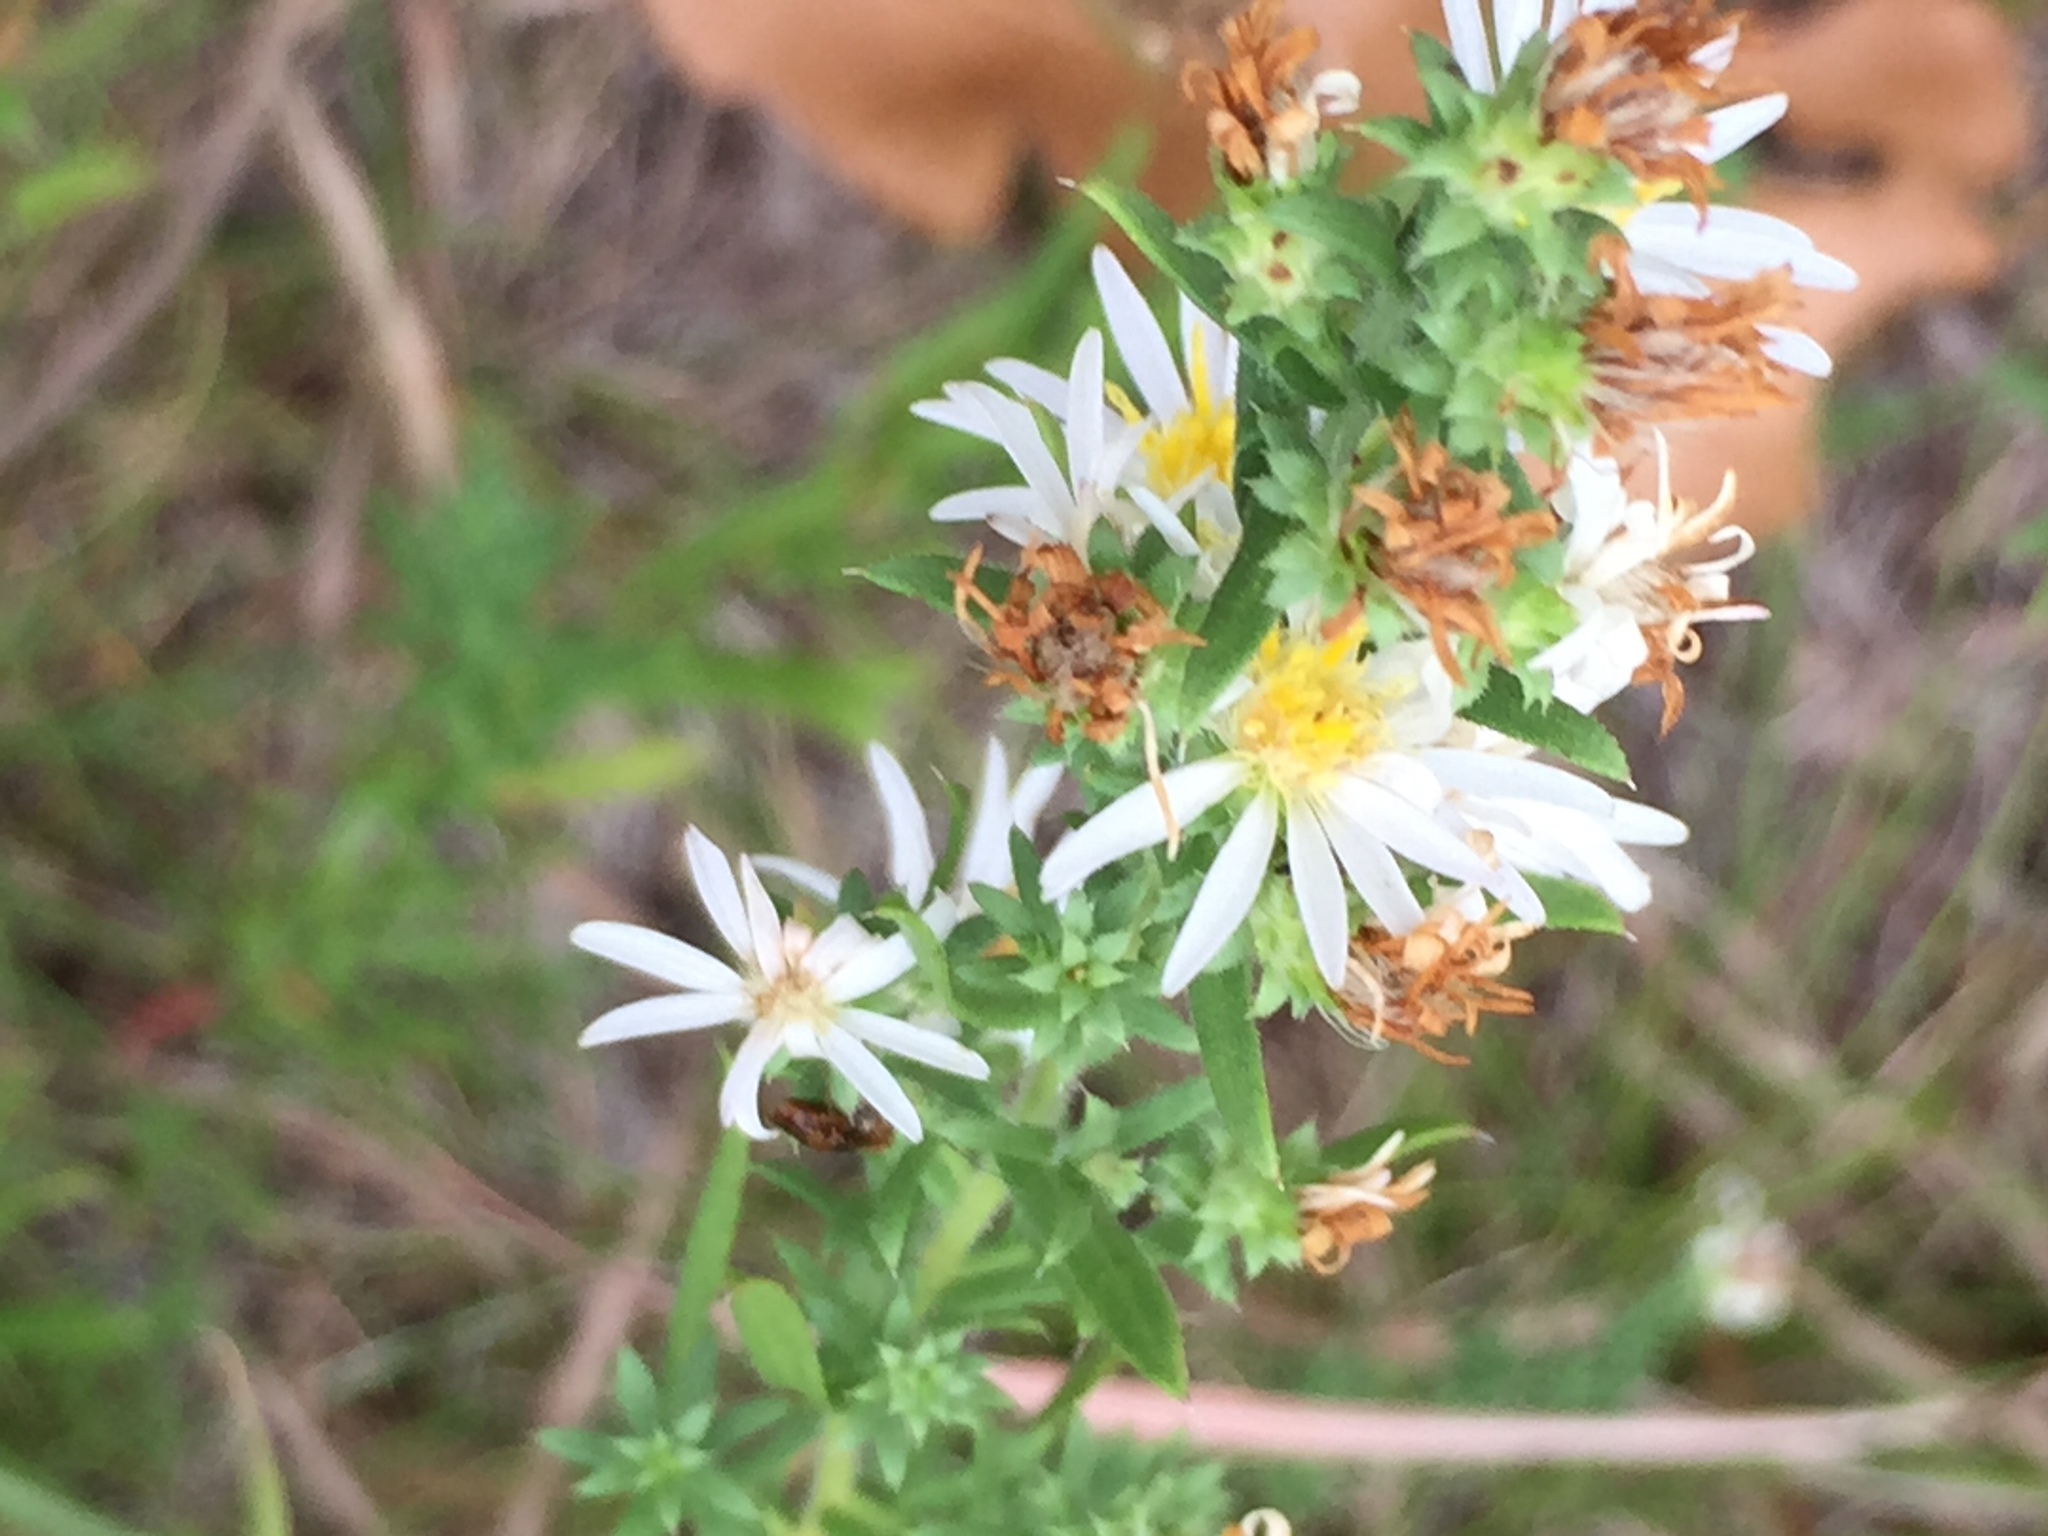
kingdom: Plantae
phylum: Tracheophyta
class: Magnoliopsida
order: Asterales
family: Asteraceae
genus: Symphyotrichum
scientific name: Symphyotrichum ericoides
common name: Heath aster
